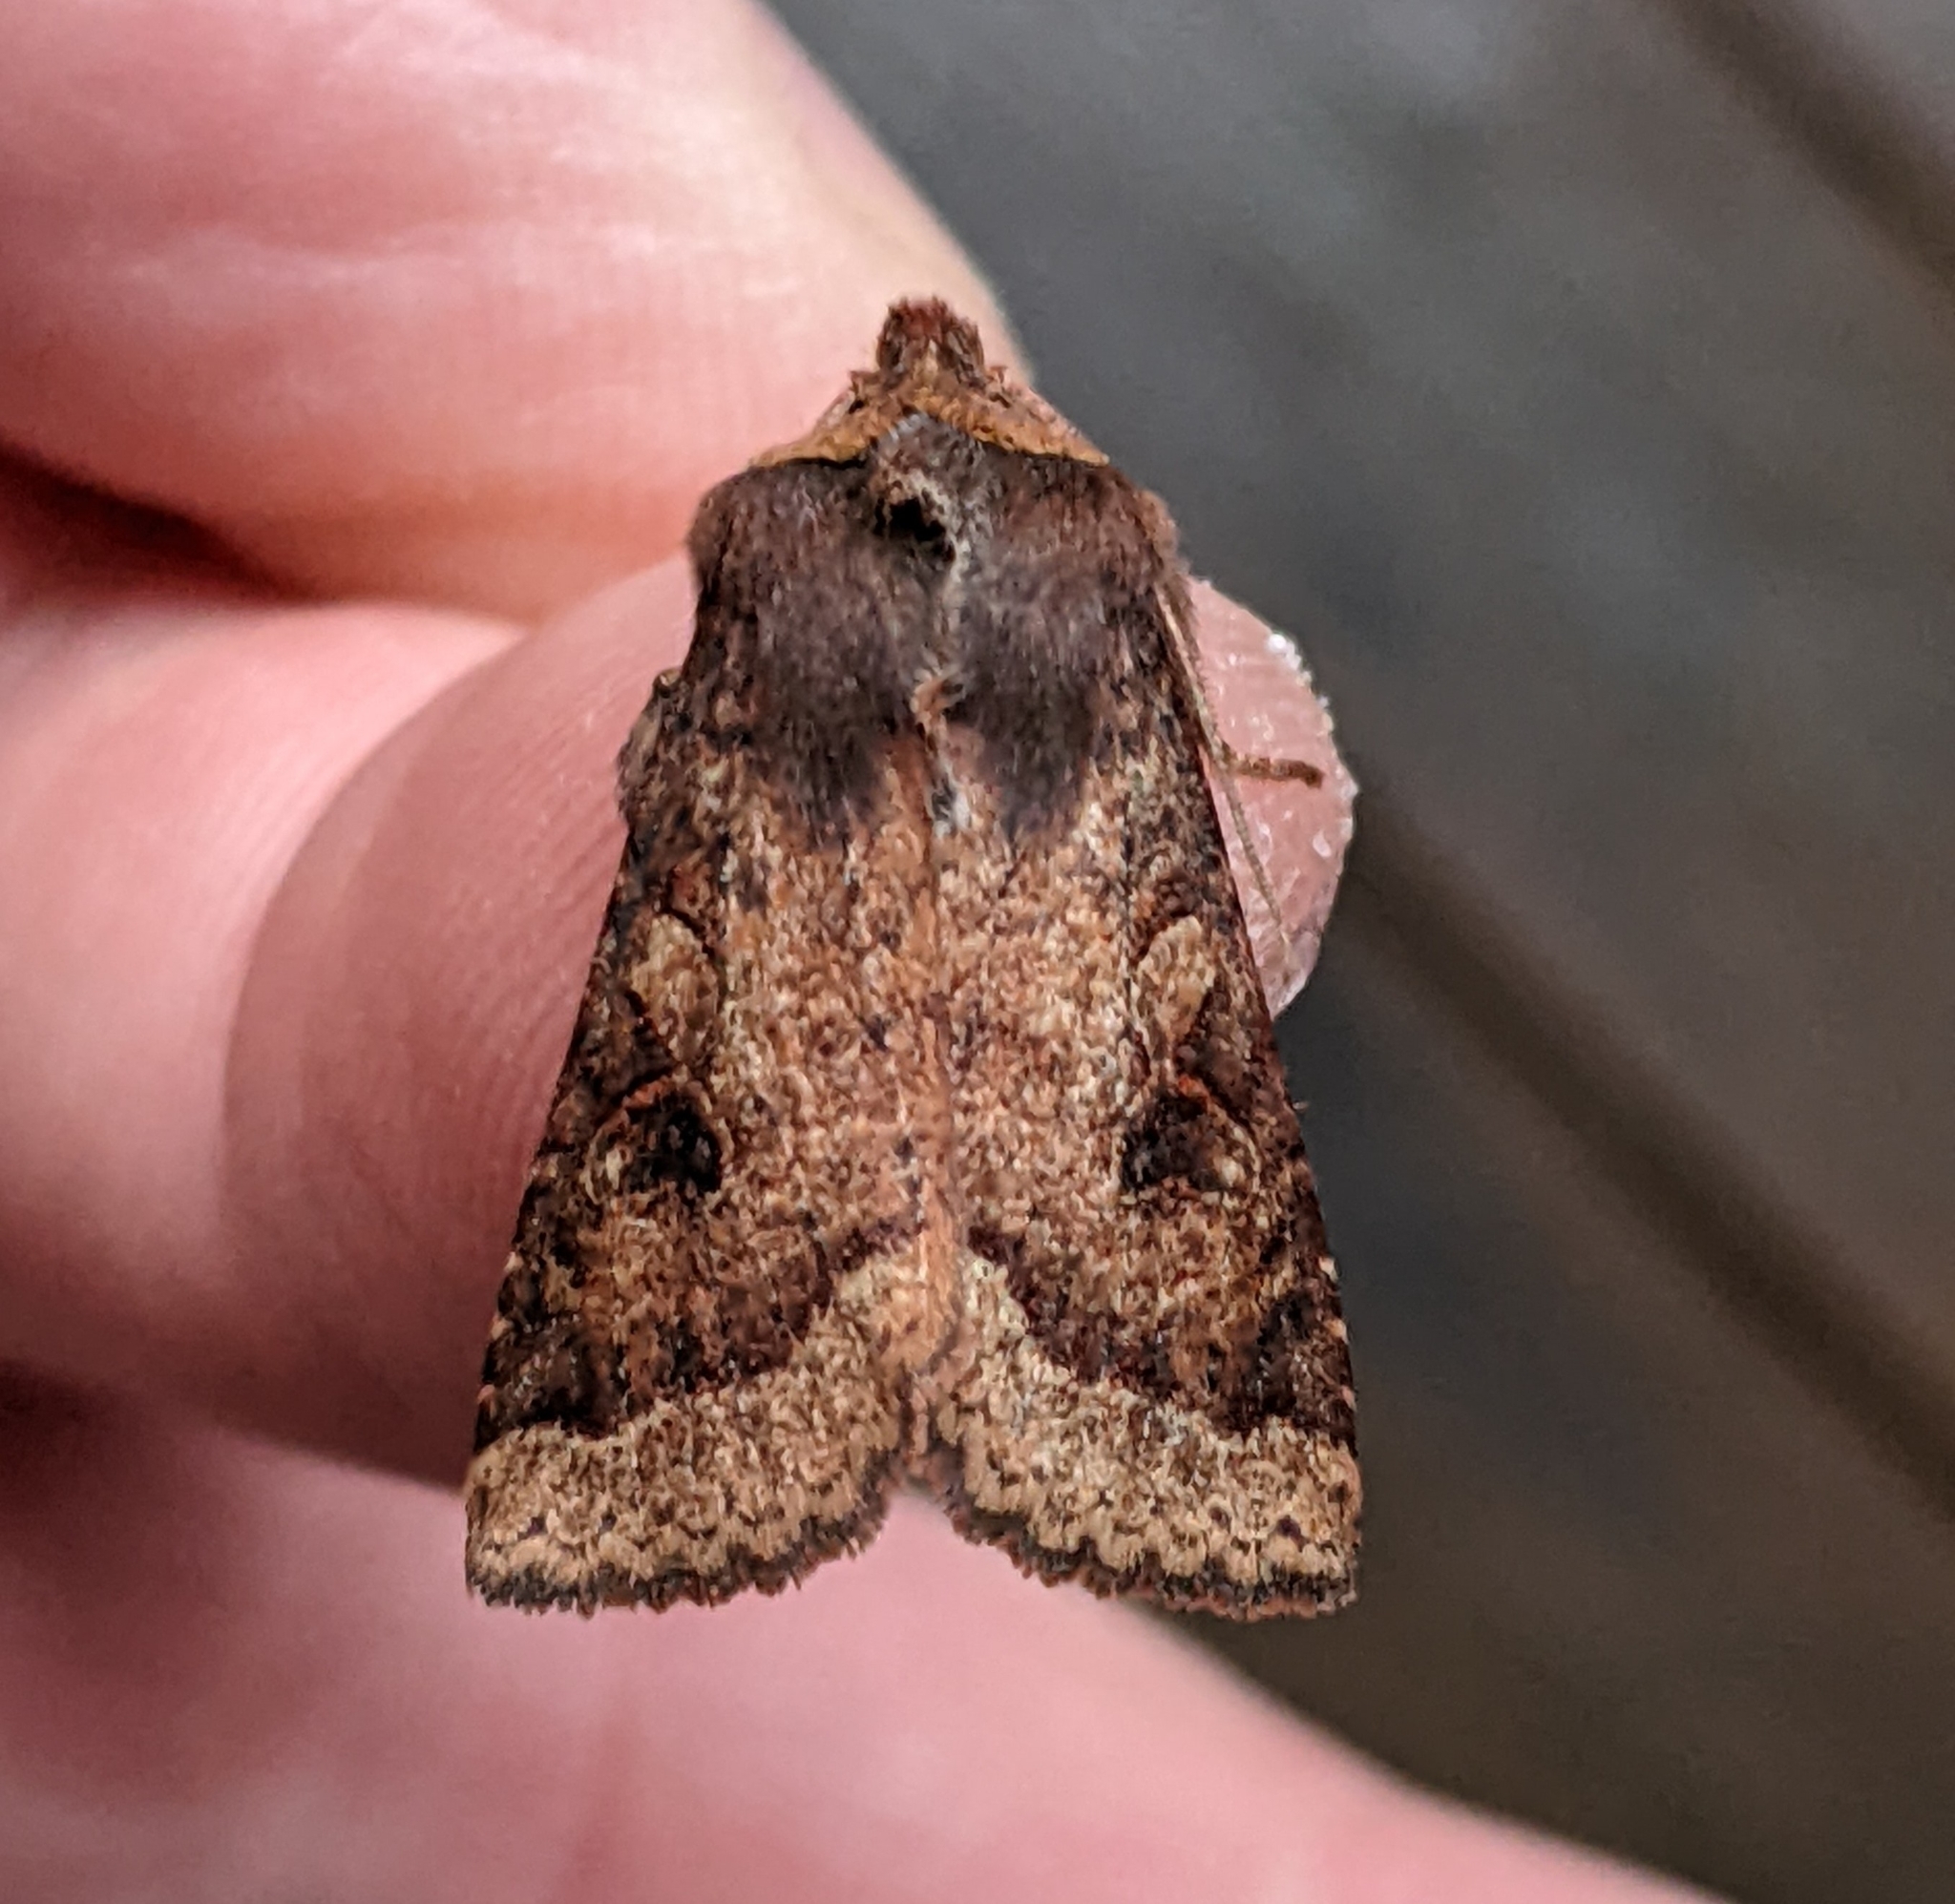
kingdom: Animalia
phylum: Arthropoda
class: Insecta
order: Lepidoptera
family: Noctuidae
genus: Orthosia
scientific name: Orthosia praeses
